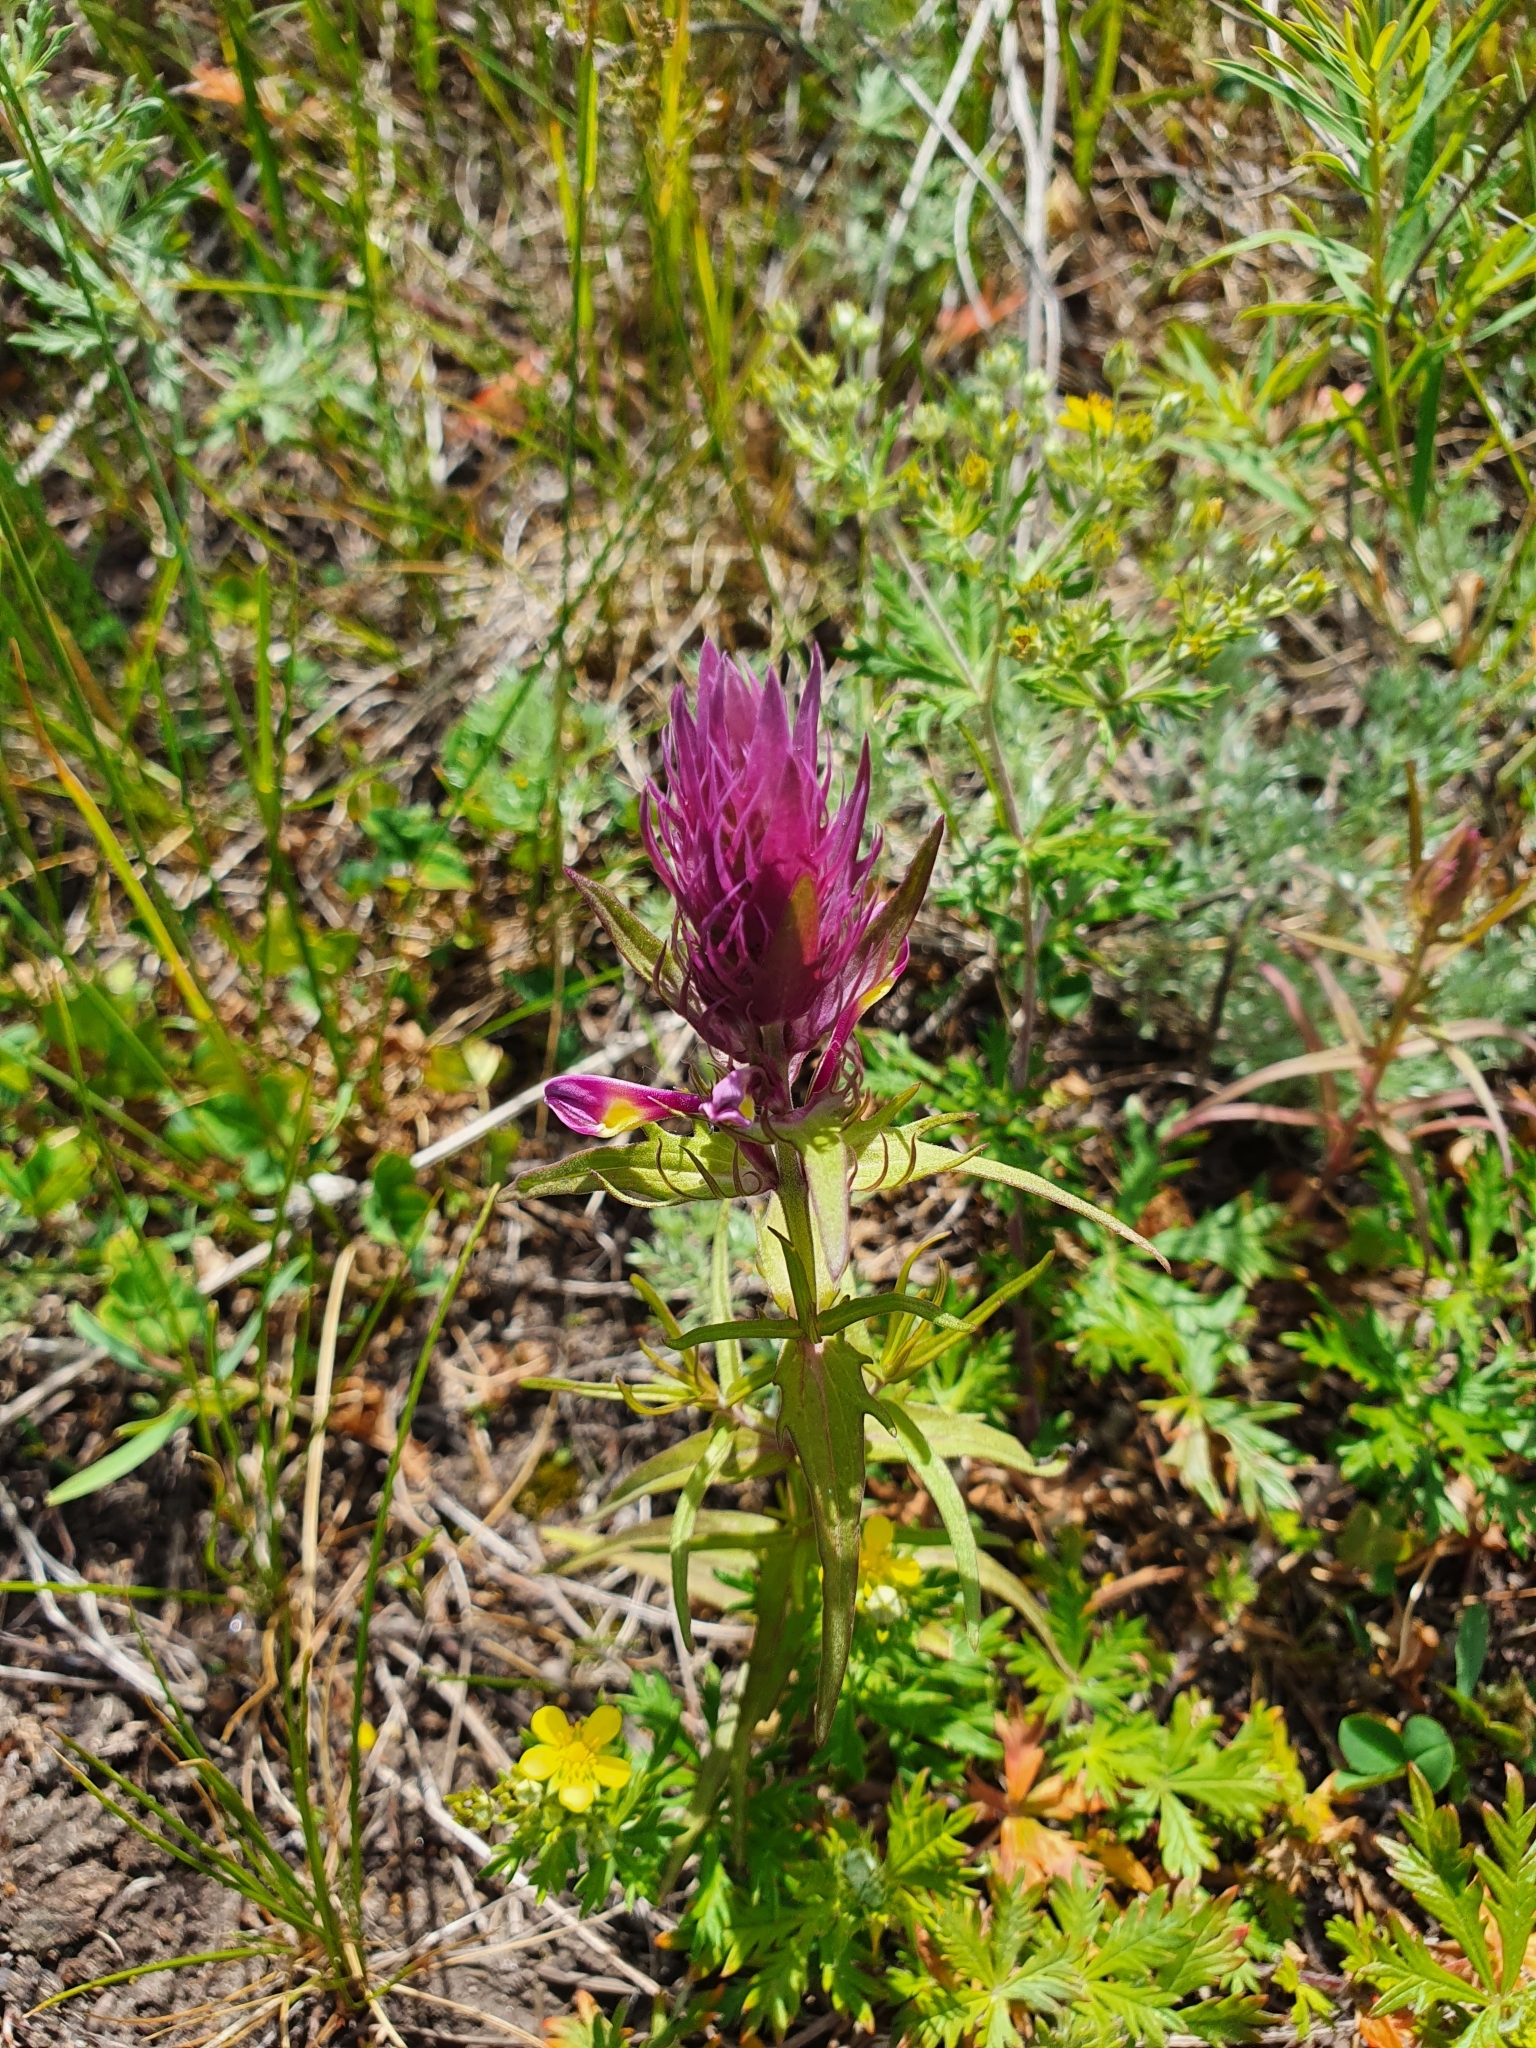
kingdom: Plantae
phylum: Tracheophyta
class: Magnoliopsida
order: Lamiales
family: Orobanchaceae
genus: Melampyrum
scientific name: Melampyrum arvense
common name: Field cow-wheat
